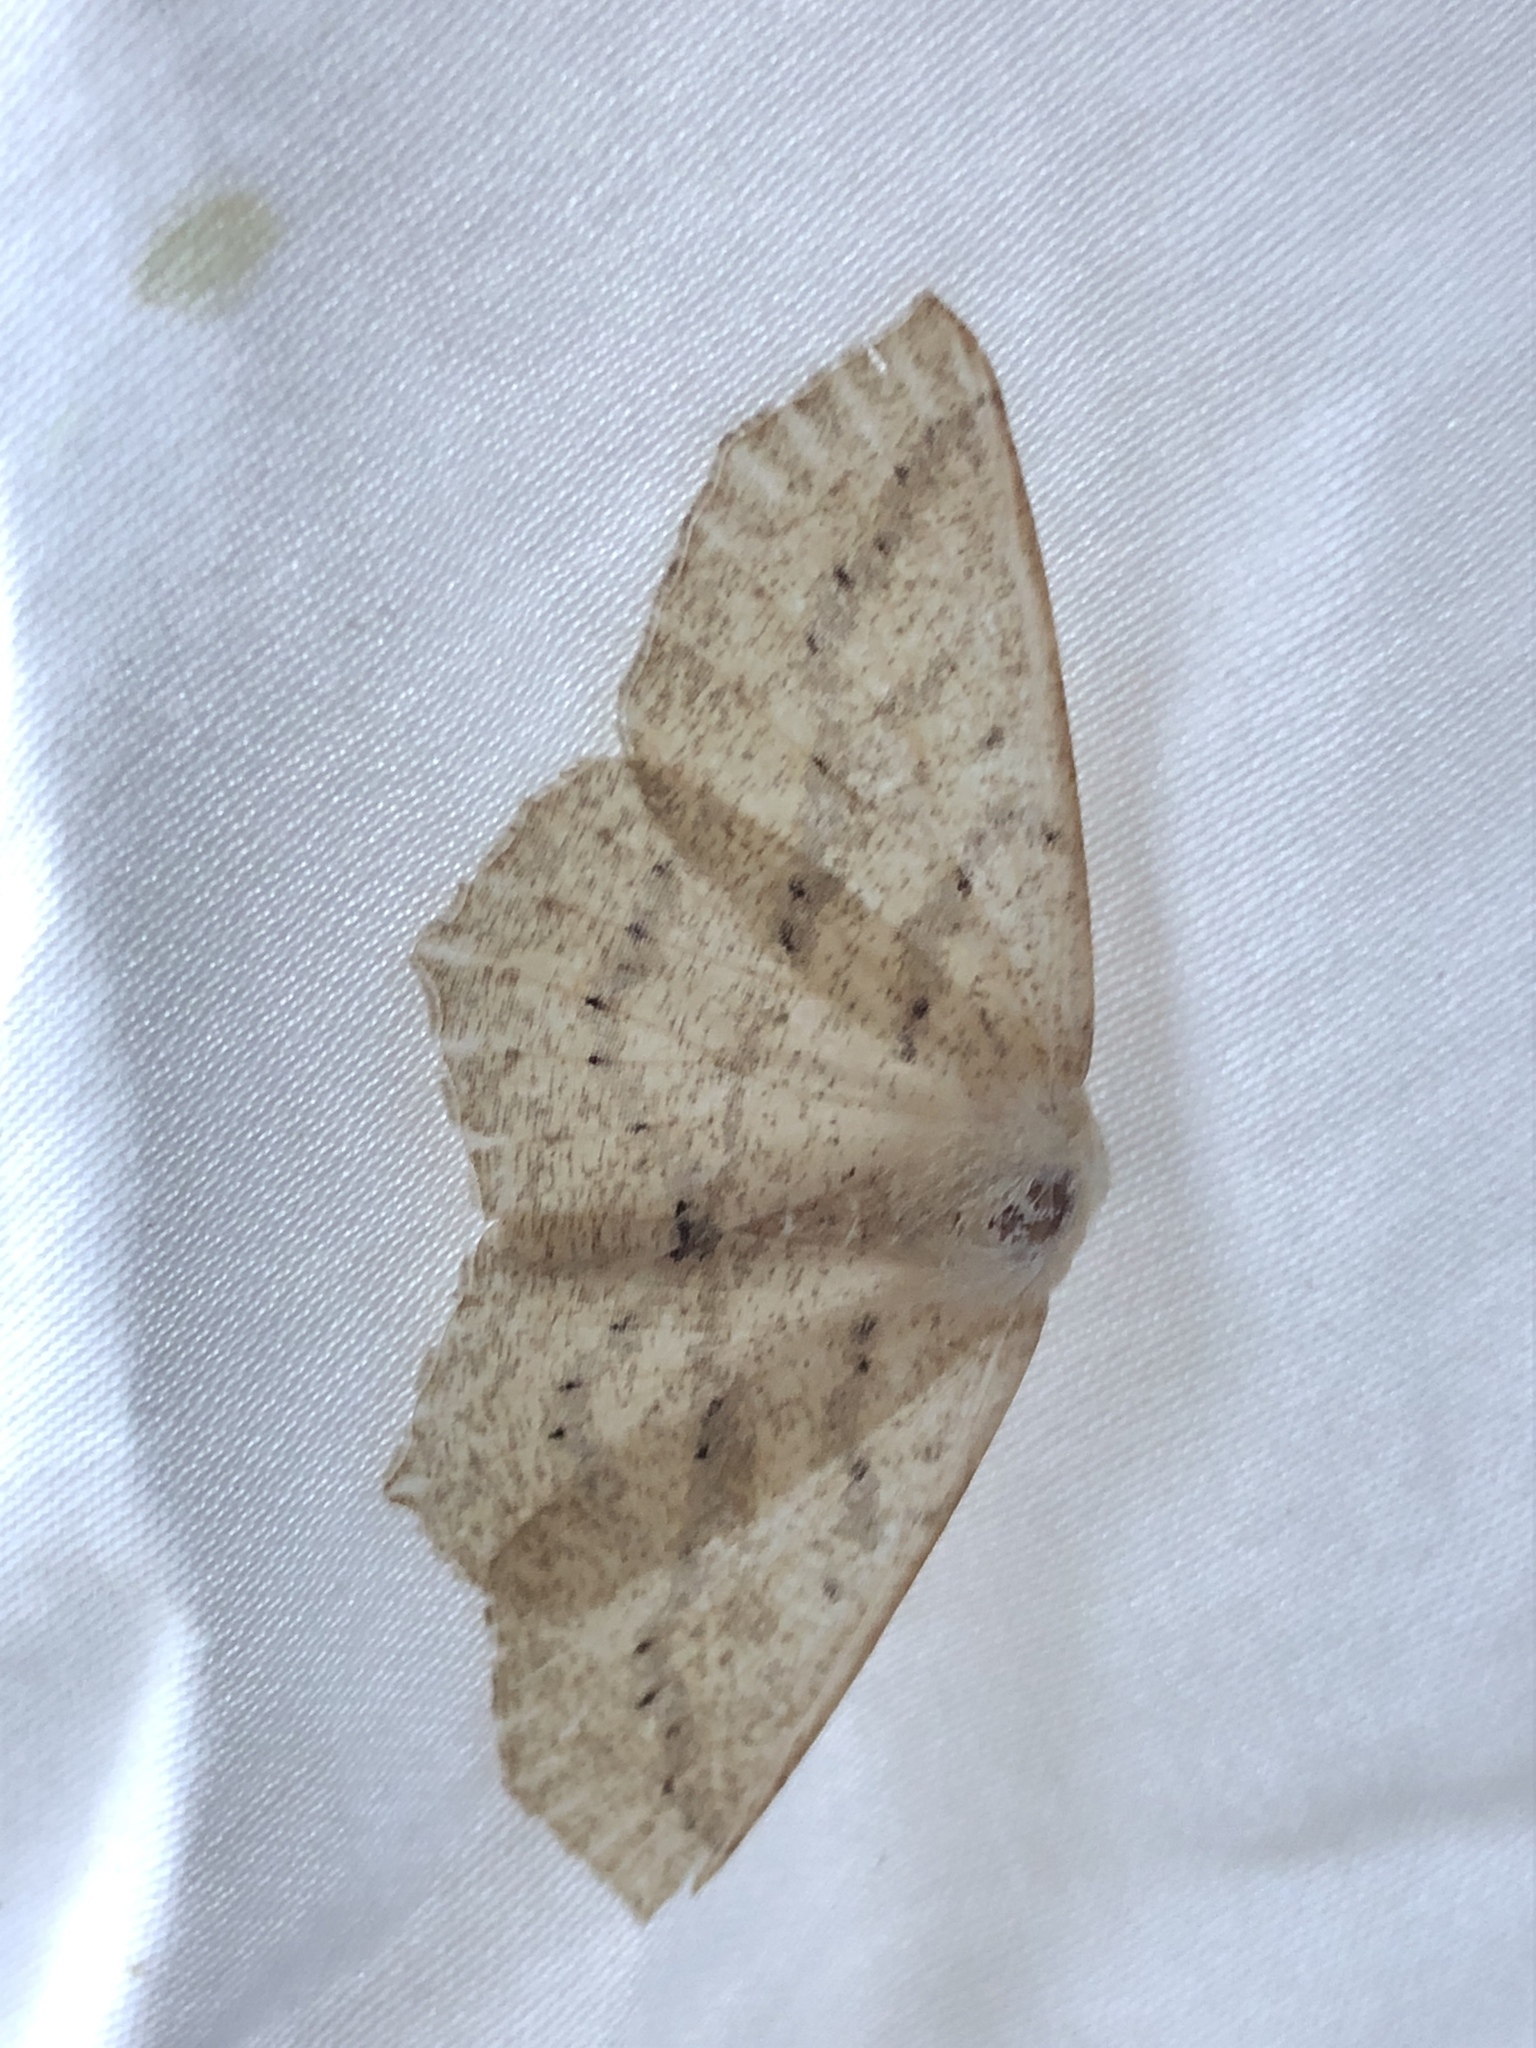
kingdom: Animalia
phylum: Arthropoda
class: Insecta
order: Lepidoptera
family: Geometridae
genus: Sabulodes
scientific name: Sabulodes aegrotata
